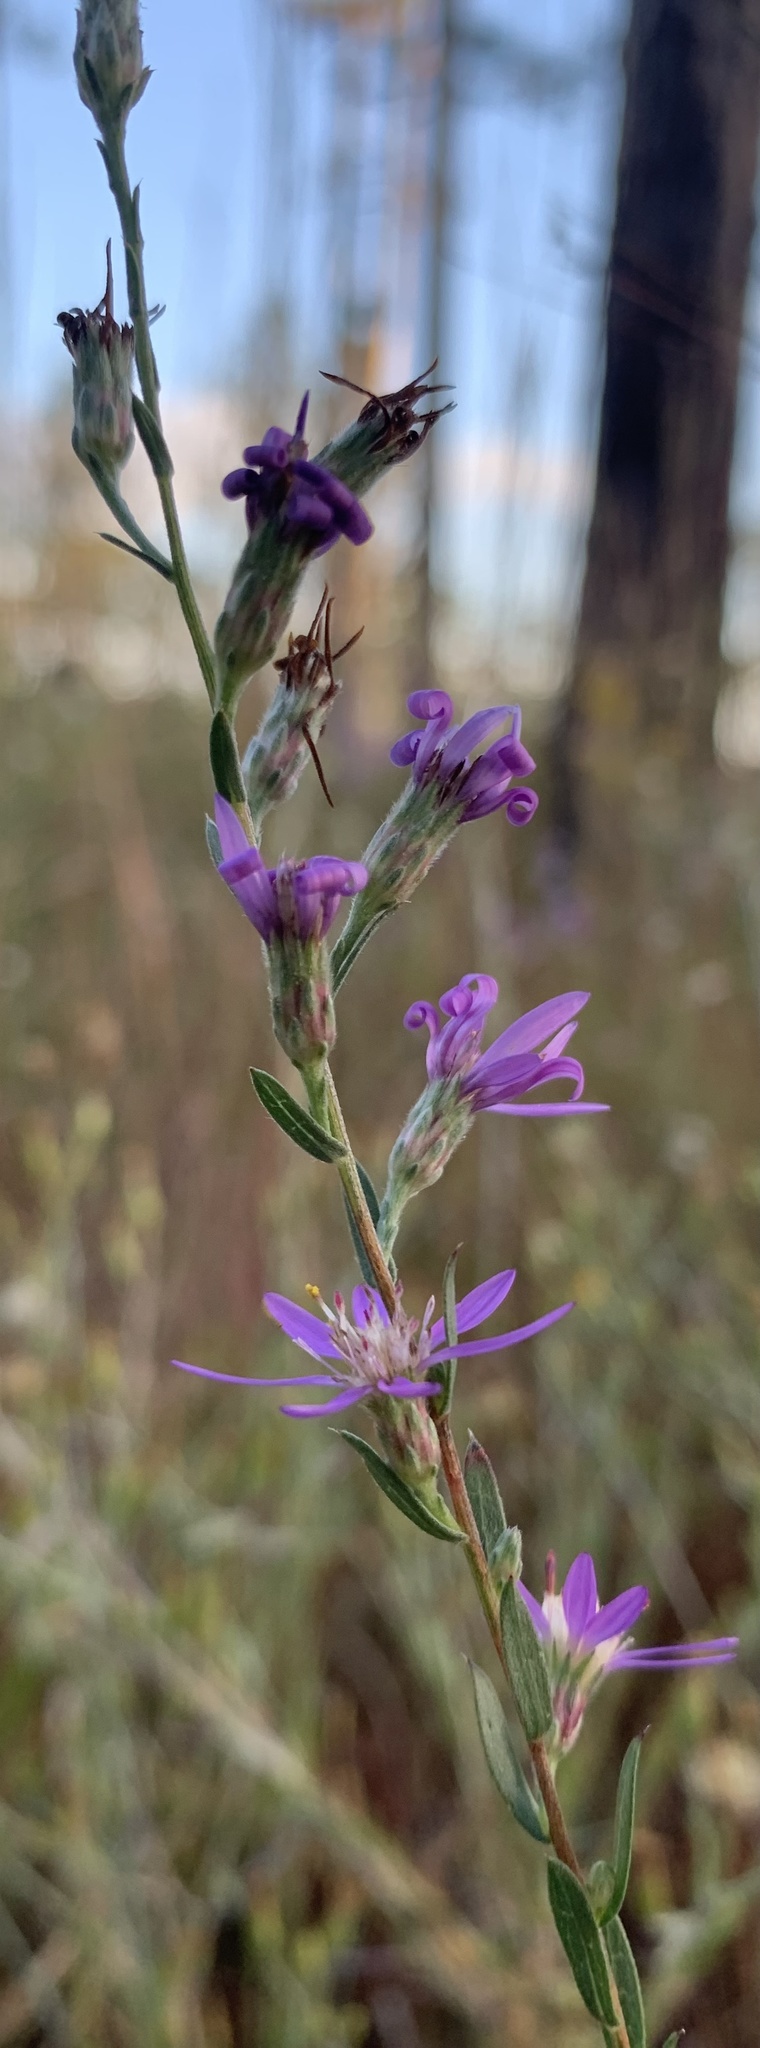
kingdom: Plantae
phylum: Tracheophyta
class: Magnoliopsida
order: Asterales
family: Asteraceae
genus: Symphyotrichum
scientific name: Symphyotrichum concolor
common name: Eastern silver aster
